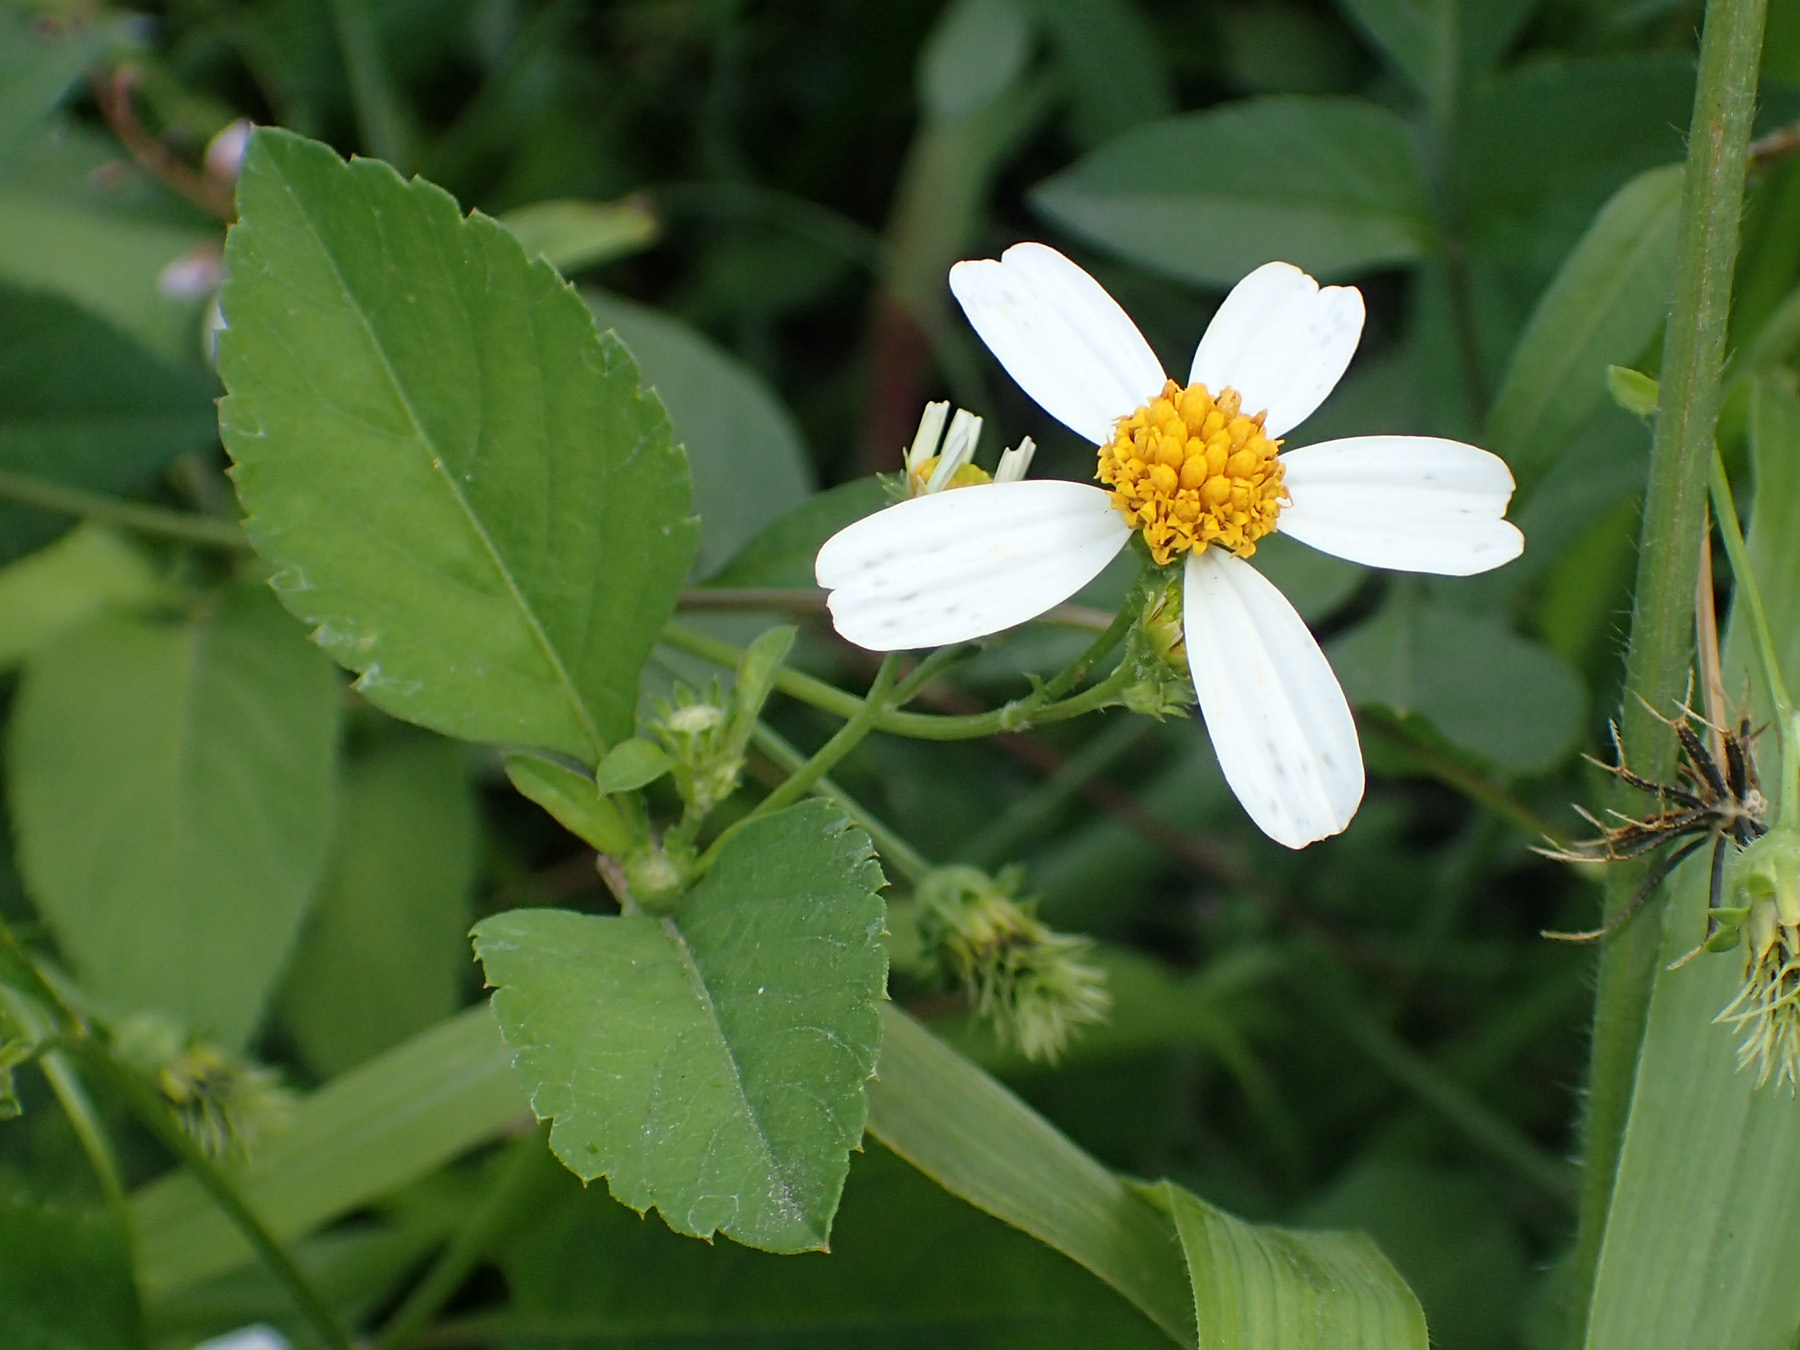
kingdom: Plantae
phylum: Tracheophyta
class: Magnoliopsida
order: Asterales
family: Asteraceae
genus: Bidens
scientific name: Bidens alba
